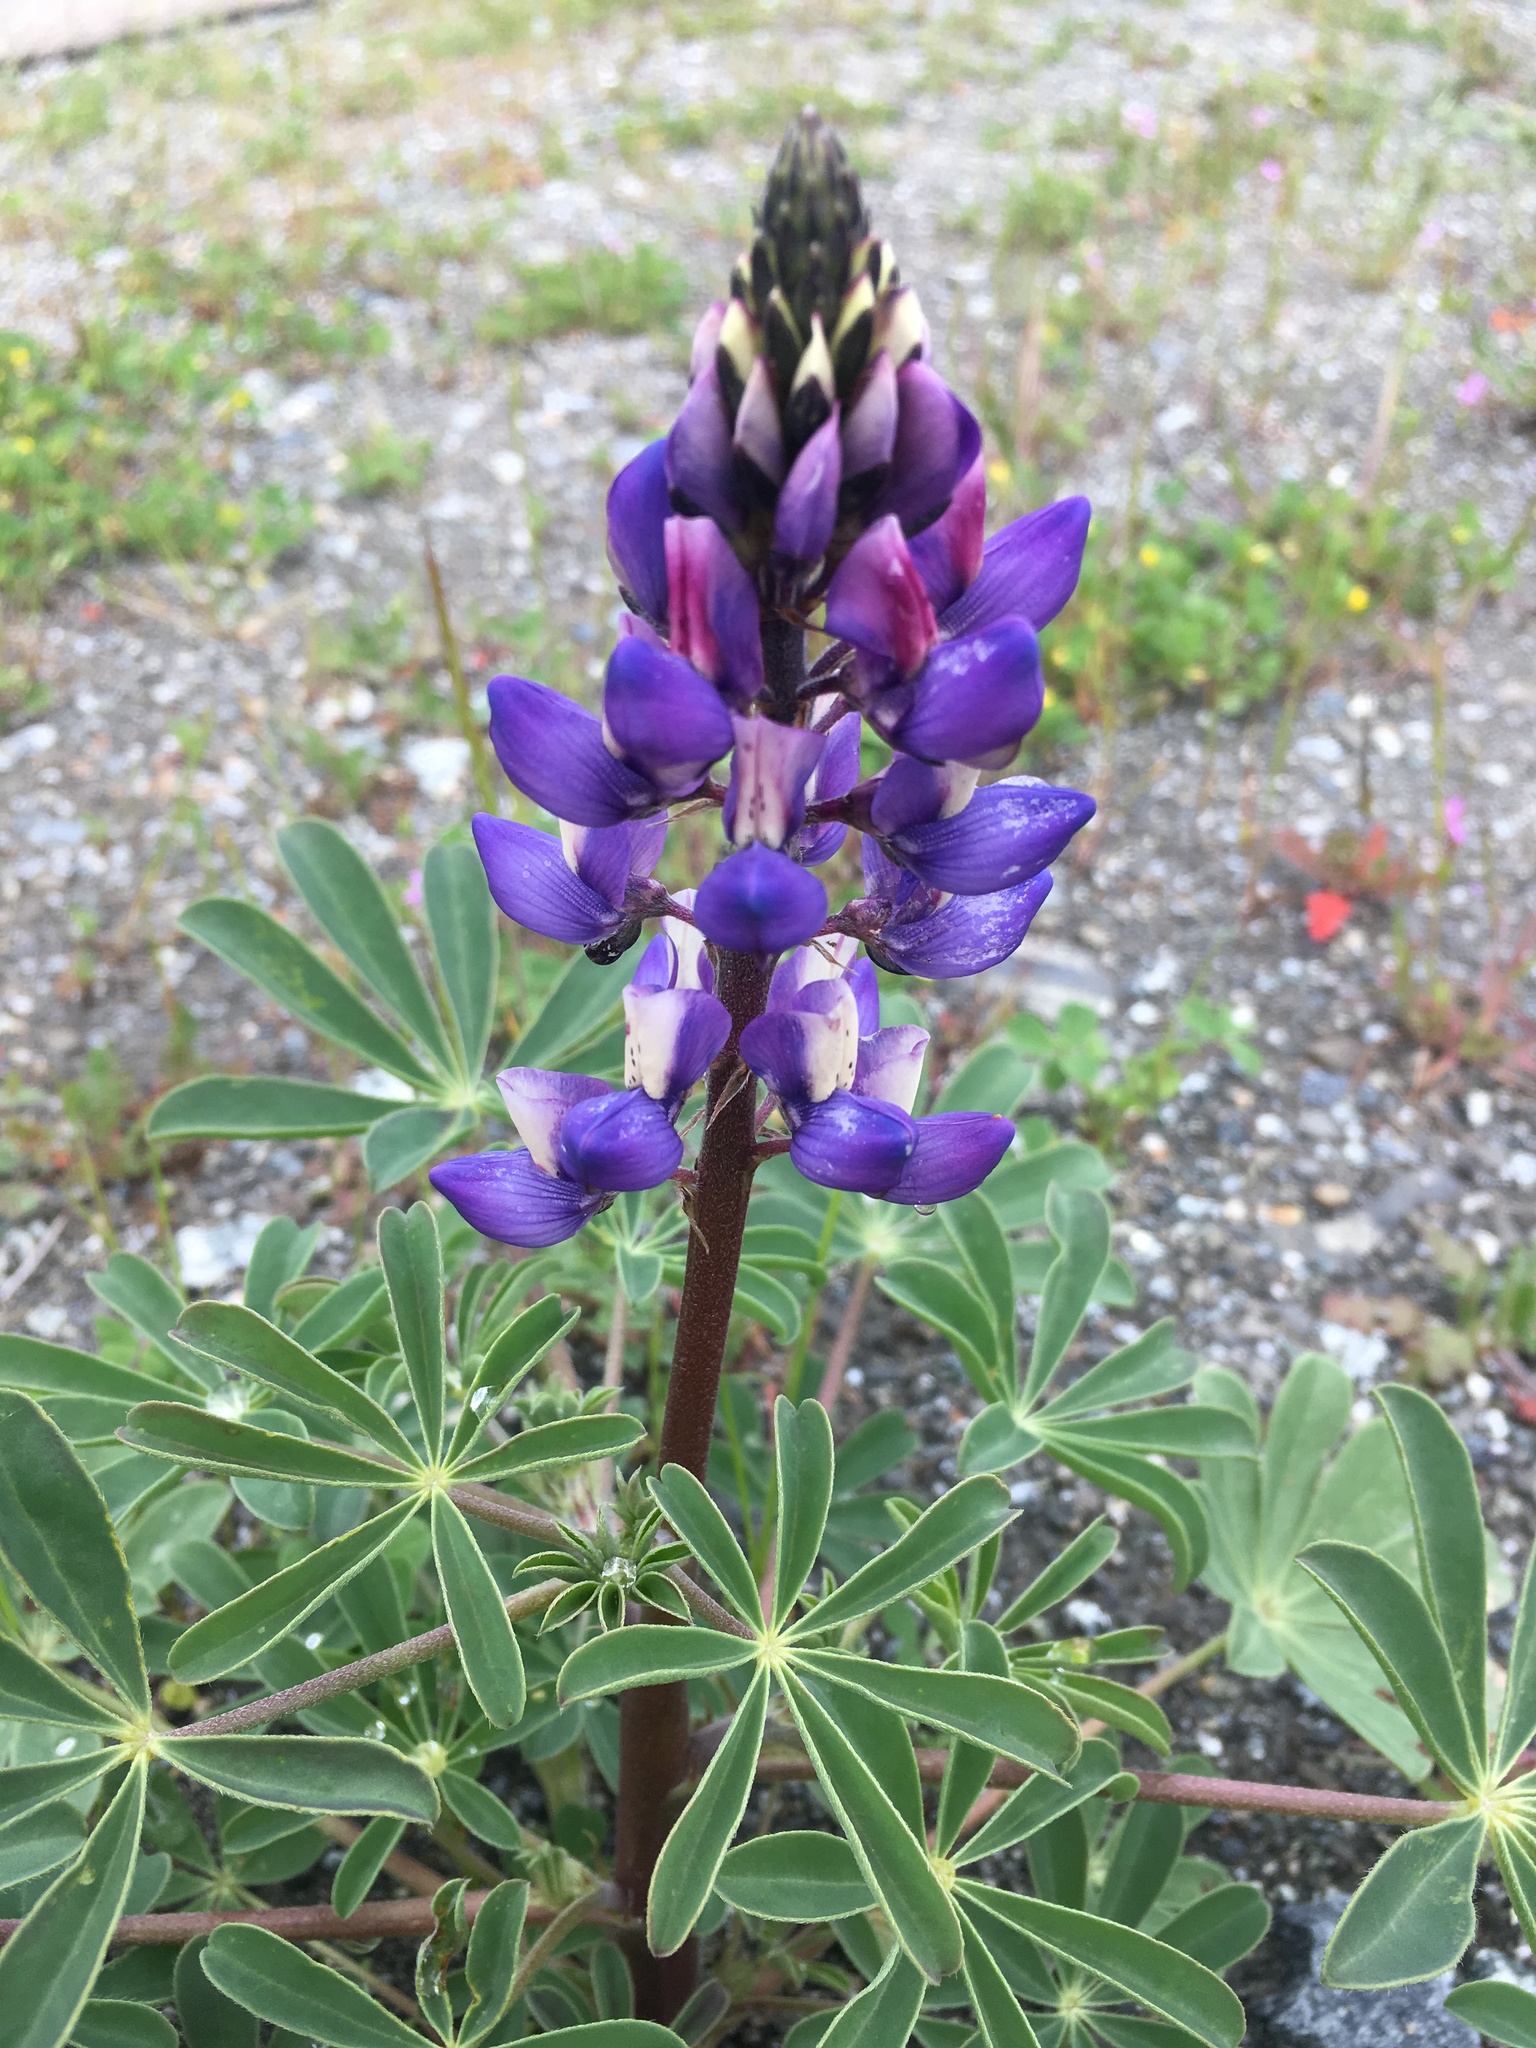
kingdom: Plantae
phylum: Tracheophyta
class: Magnoliopsida
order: Fabales
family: Fabaceae
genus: Lupinus
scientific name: Lupinus succulentus
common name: Arroyo lupine
